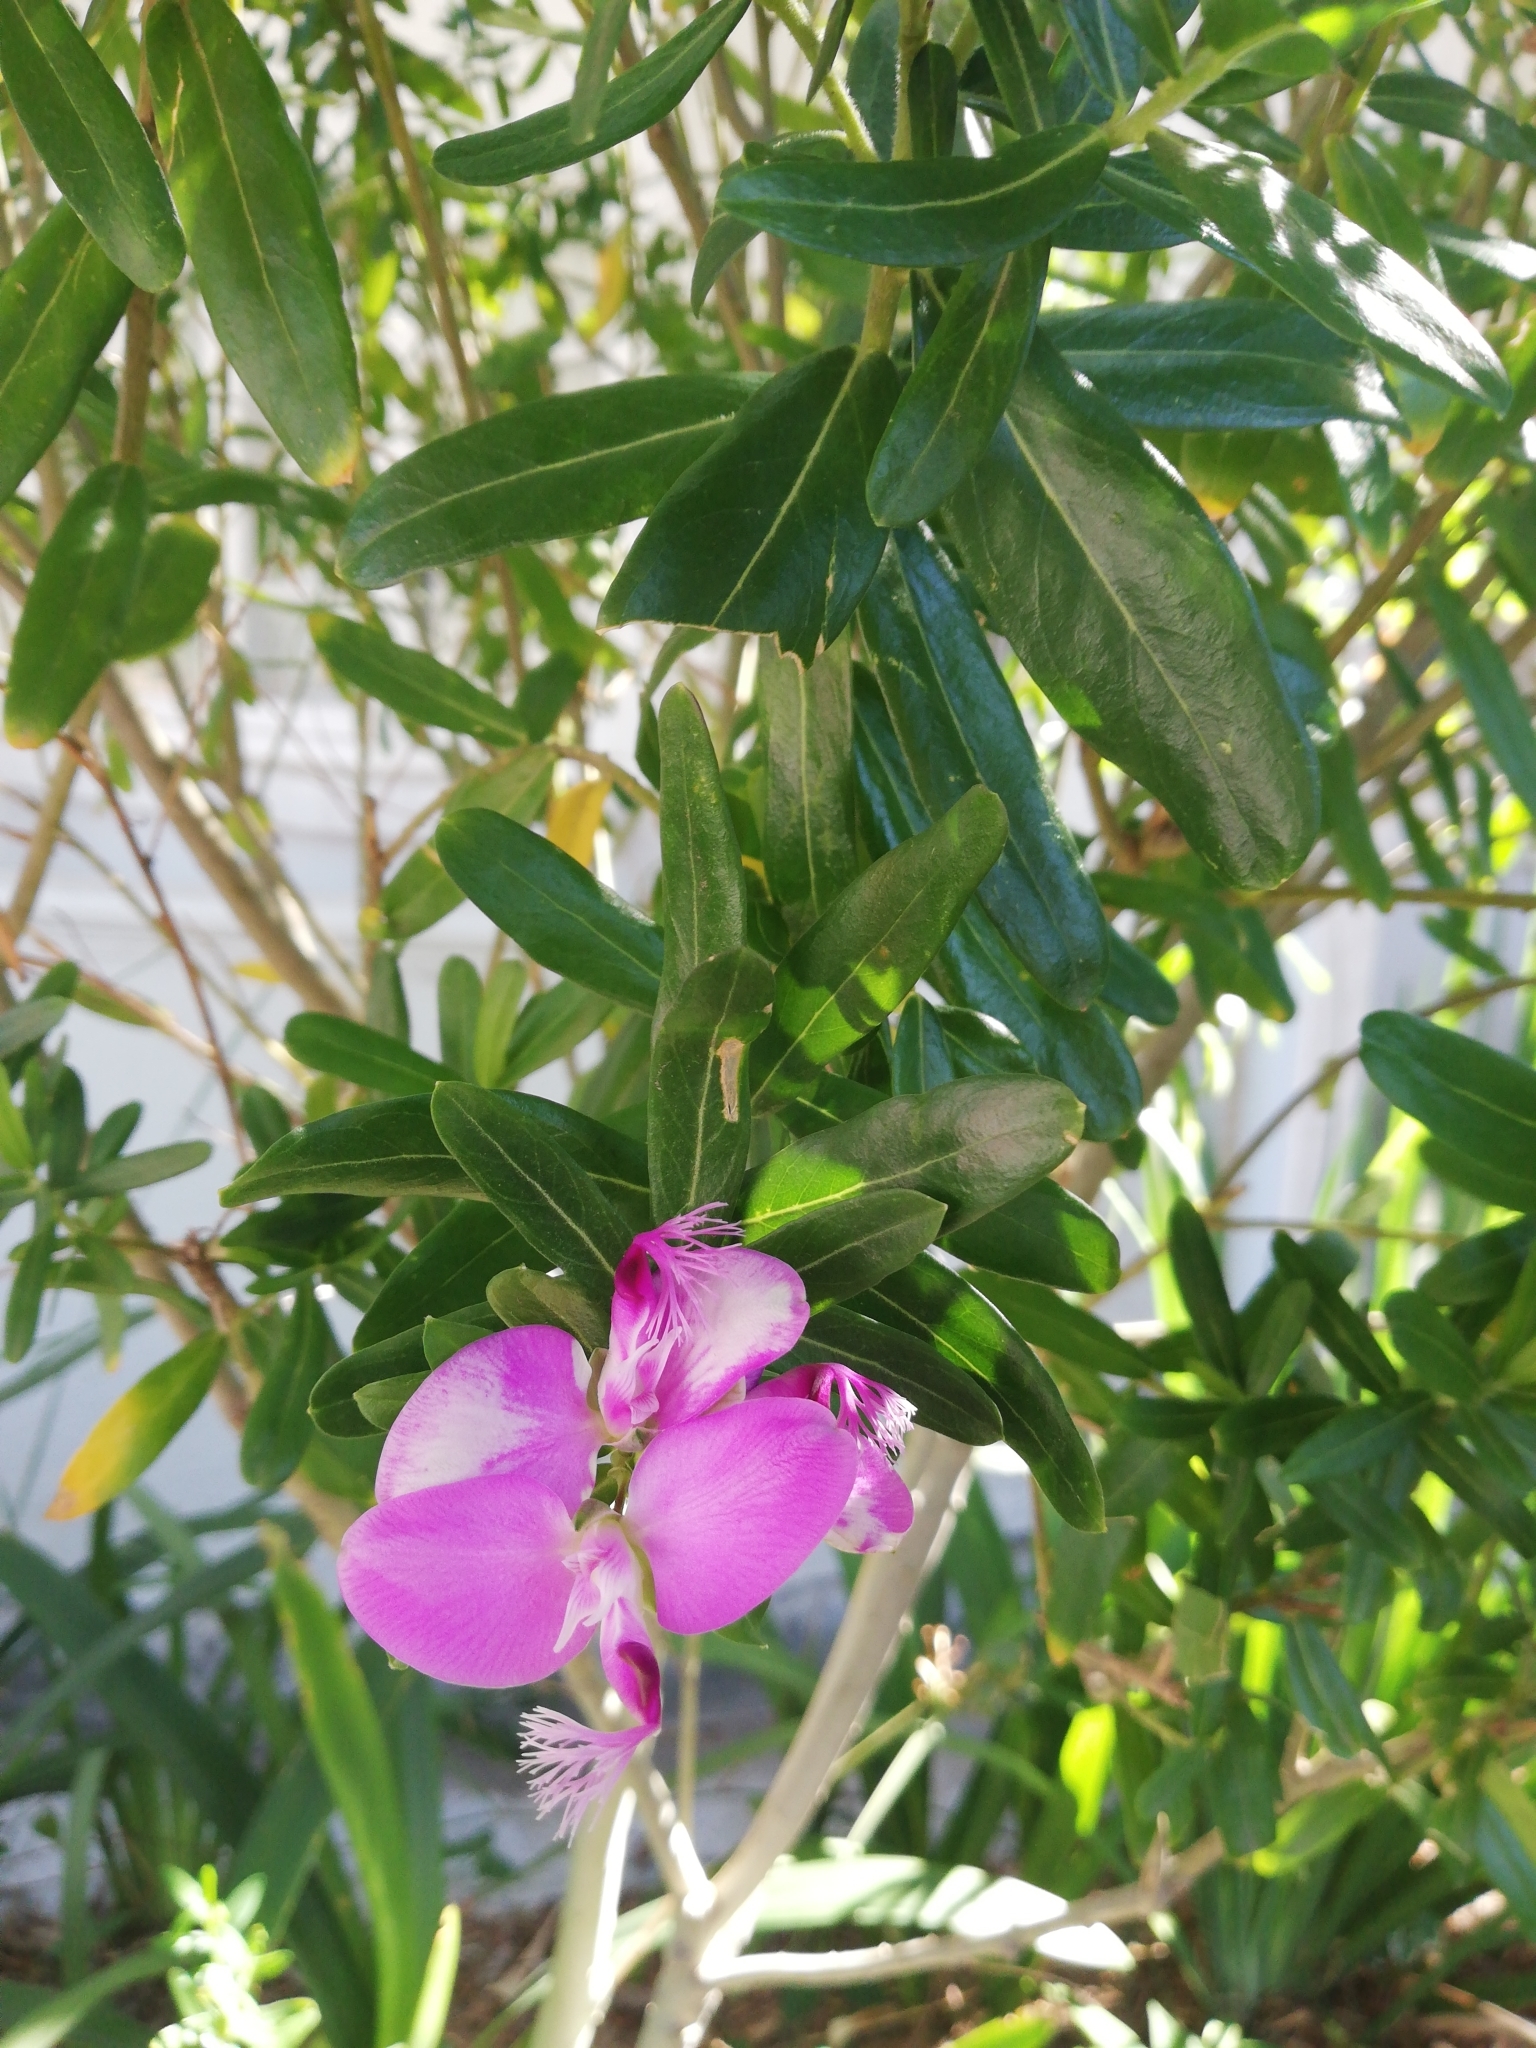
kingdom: Plantae
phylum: Tracheophyta
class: Magnoliopsida
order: Fabales
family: Polygalaceae
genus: Polygala
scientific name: Polygala myrtifolia
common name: Myrtle-leaf milkwort
